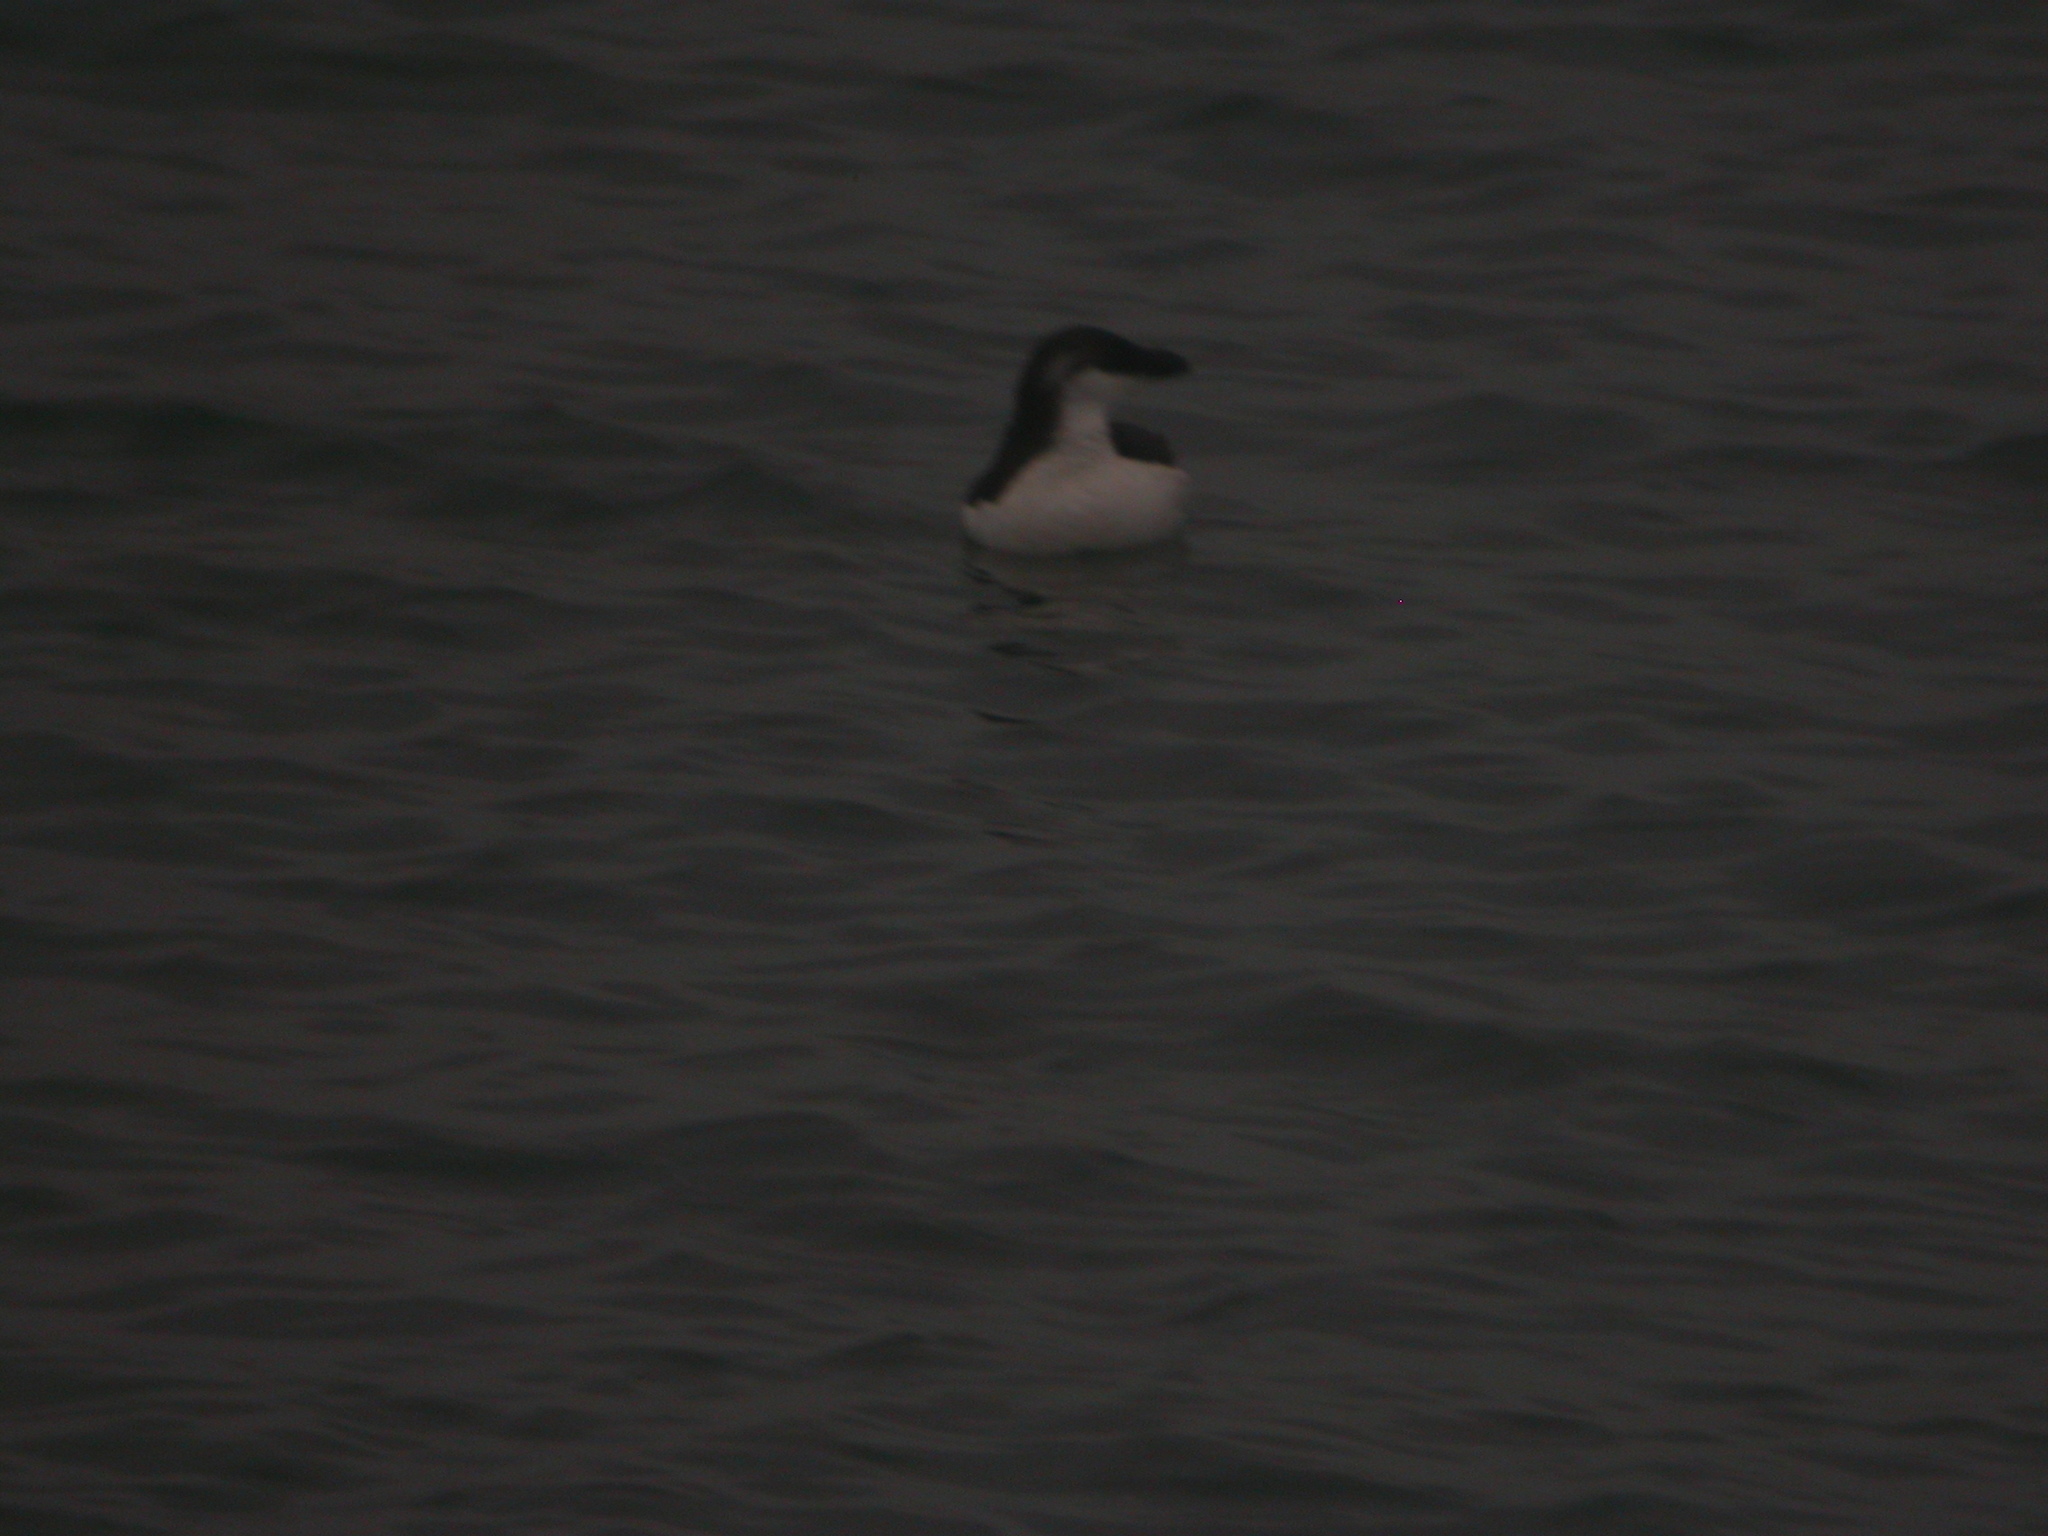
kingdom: Animalia
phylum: Chordata
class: Aves
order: Charadriiformes
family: Alcidae
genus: Alca
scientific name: Alca torda
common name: Razorbill
